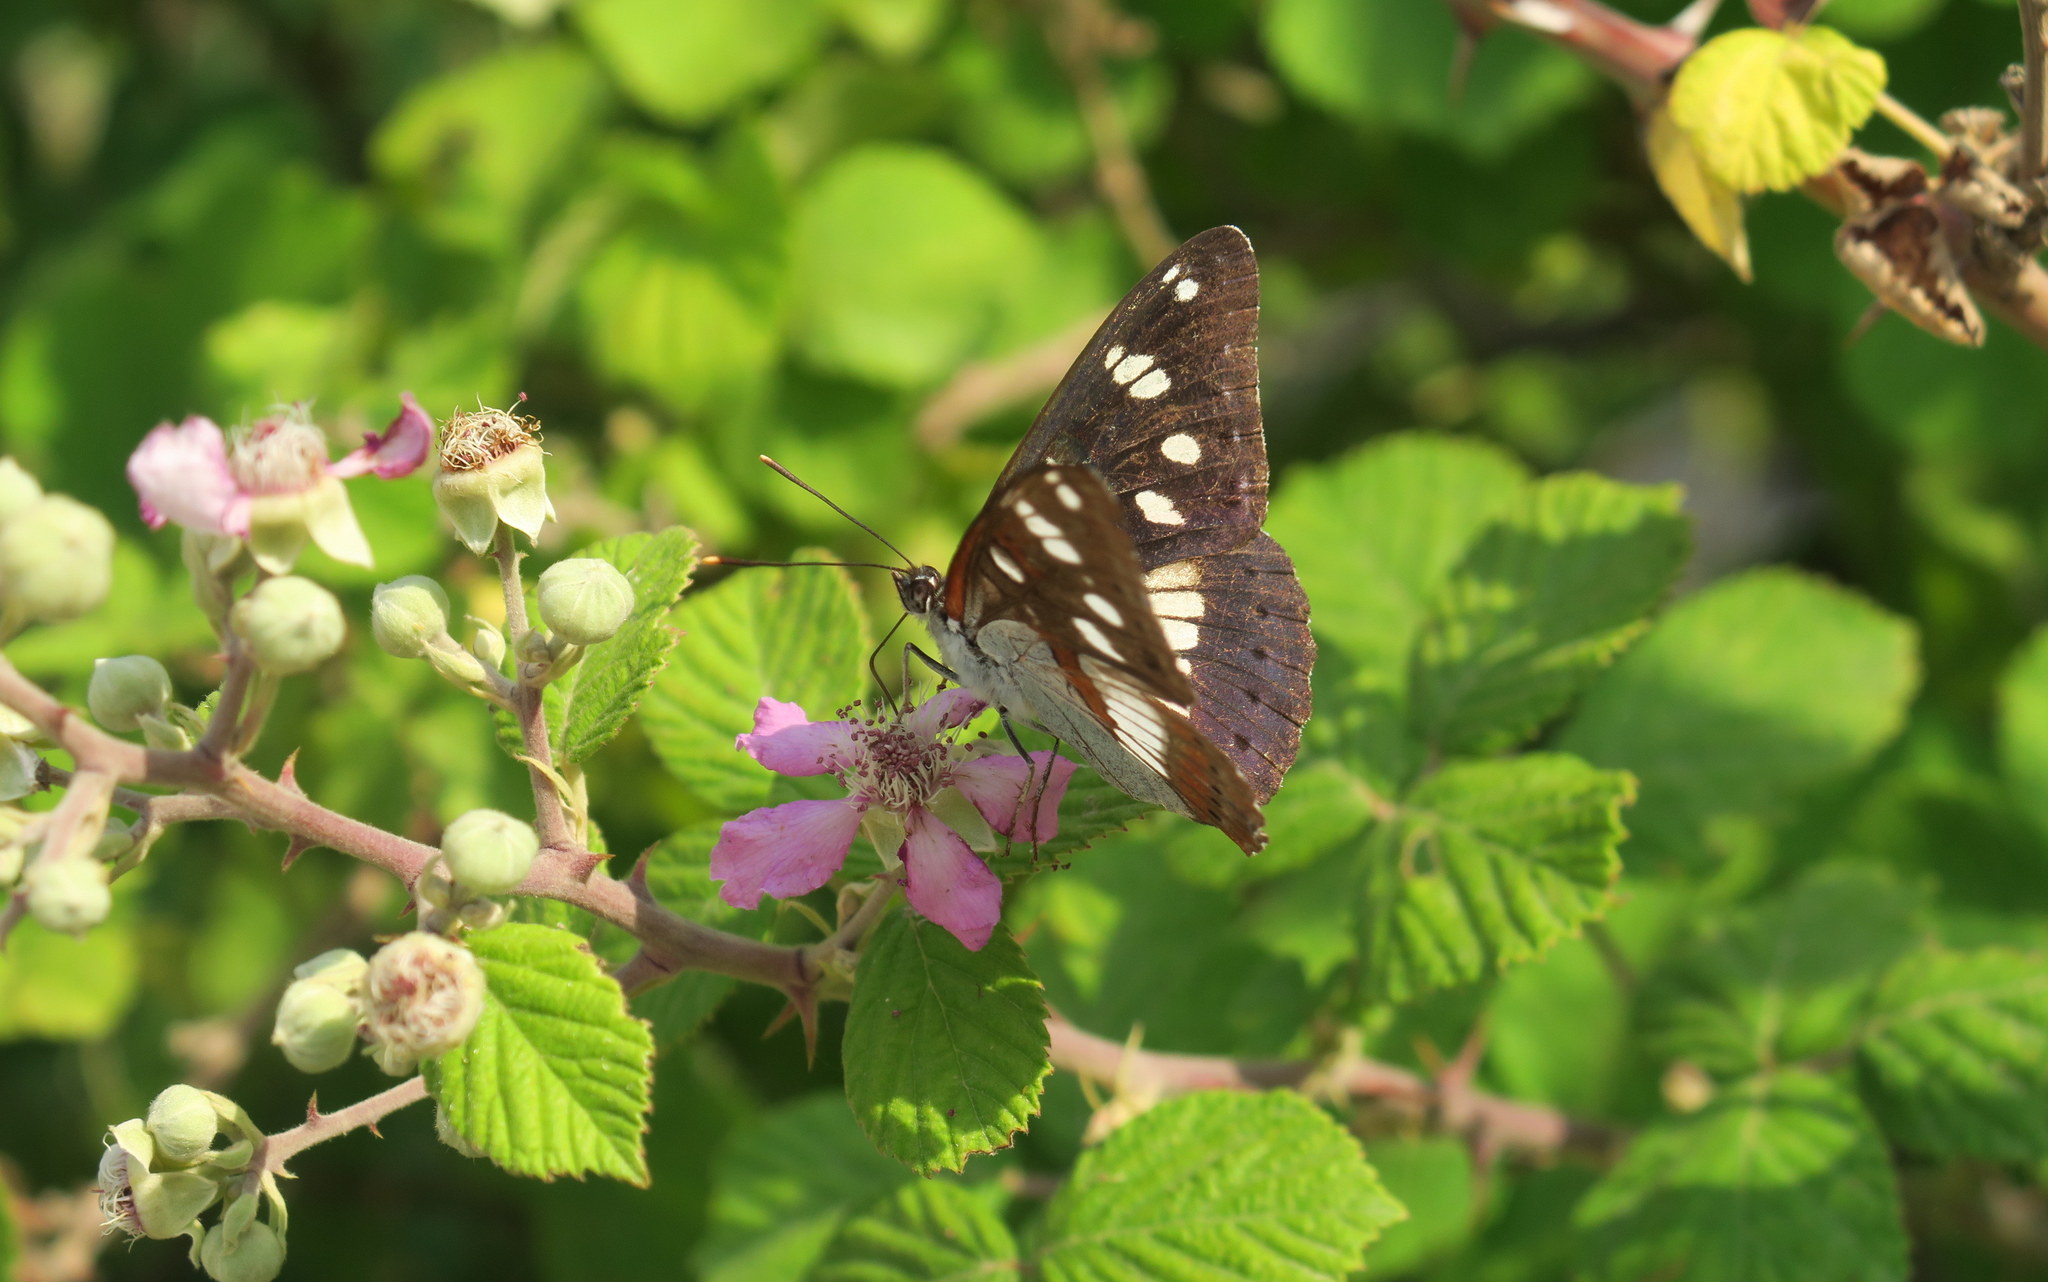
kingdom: Animalia
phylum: Arthropoda
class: Insecta
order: Lepidoptera
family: Nymphalidae
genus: Limenitis
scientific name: Limenitis reducta
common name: Southern white admiral
